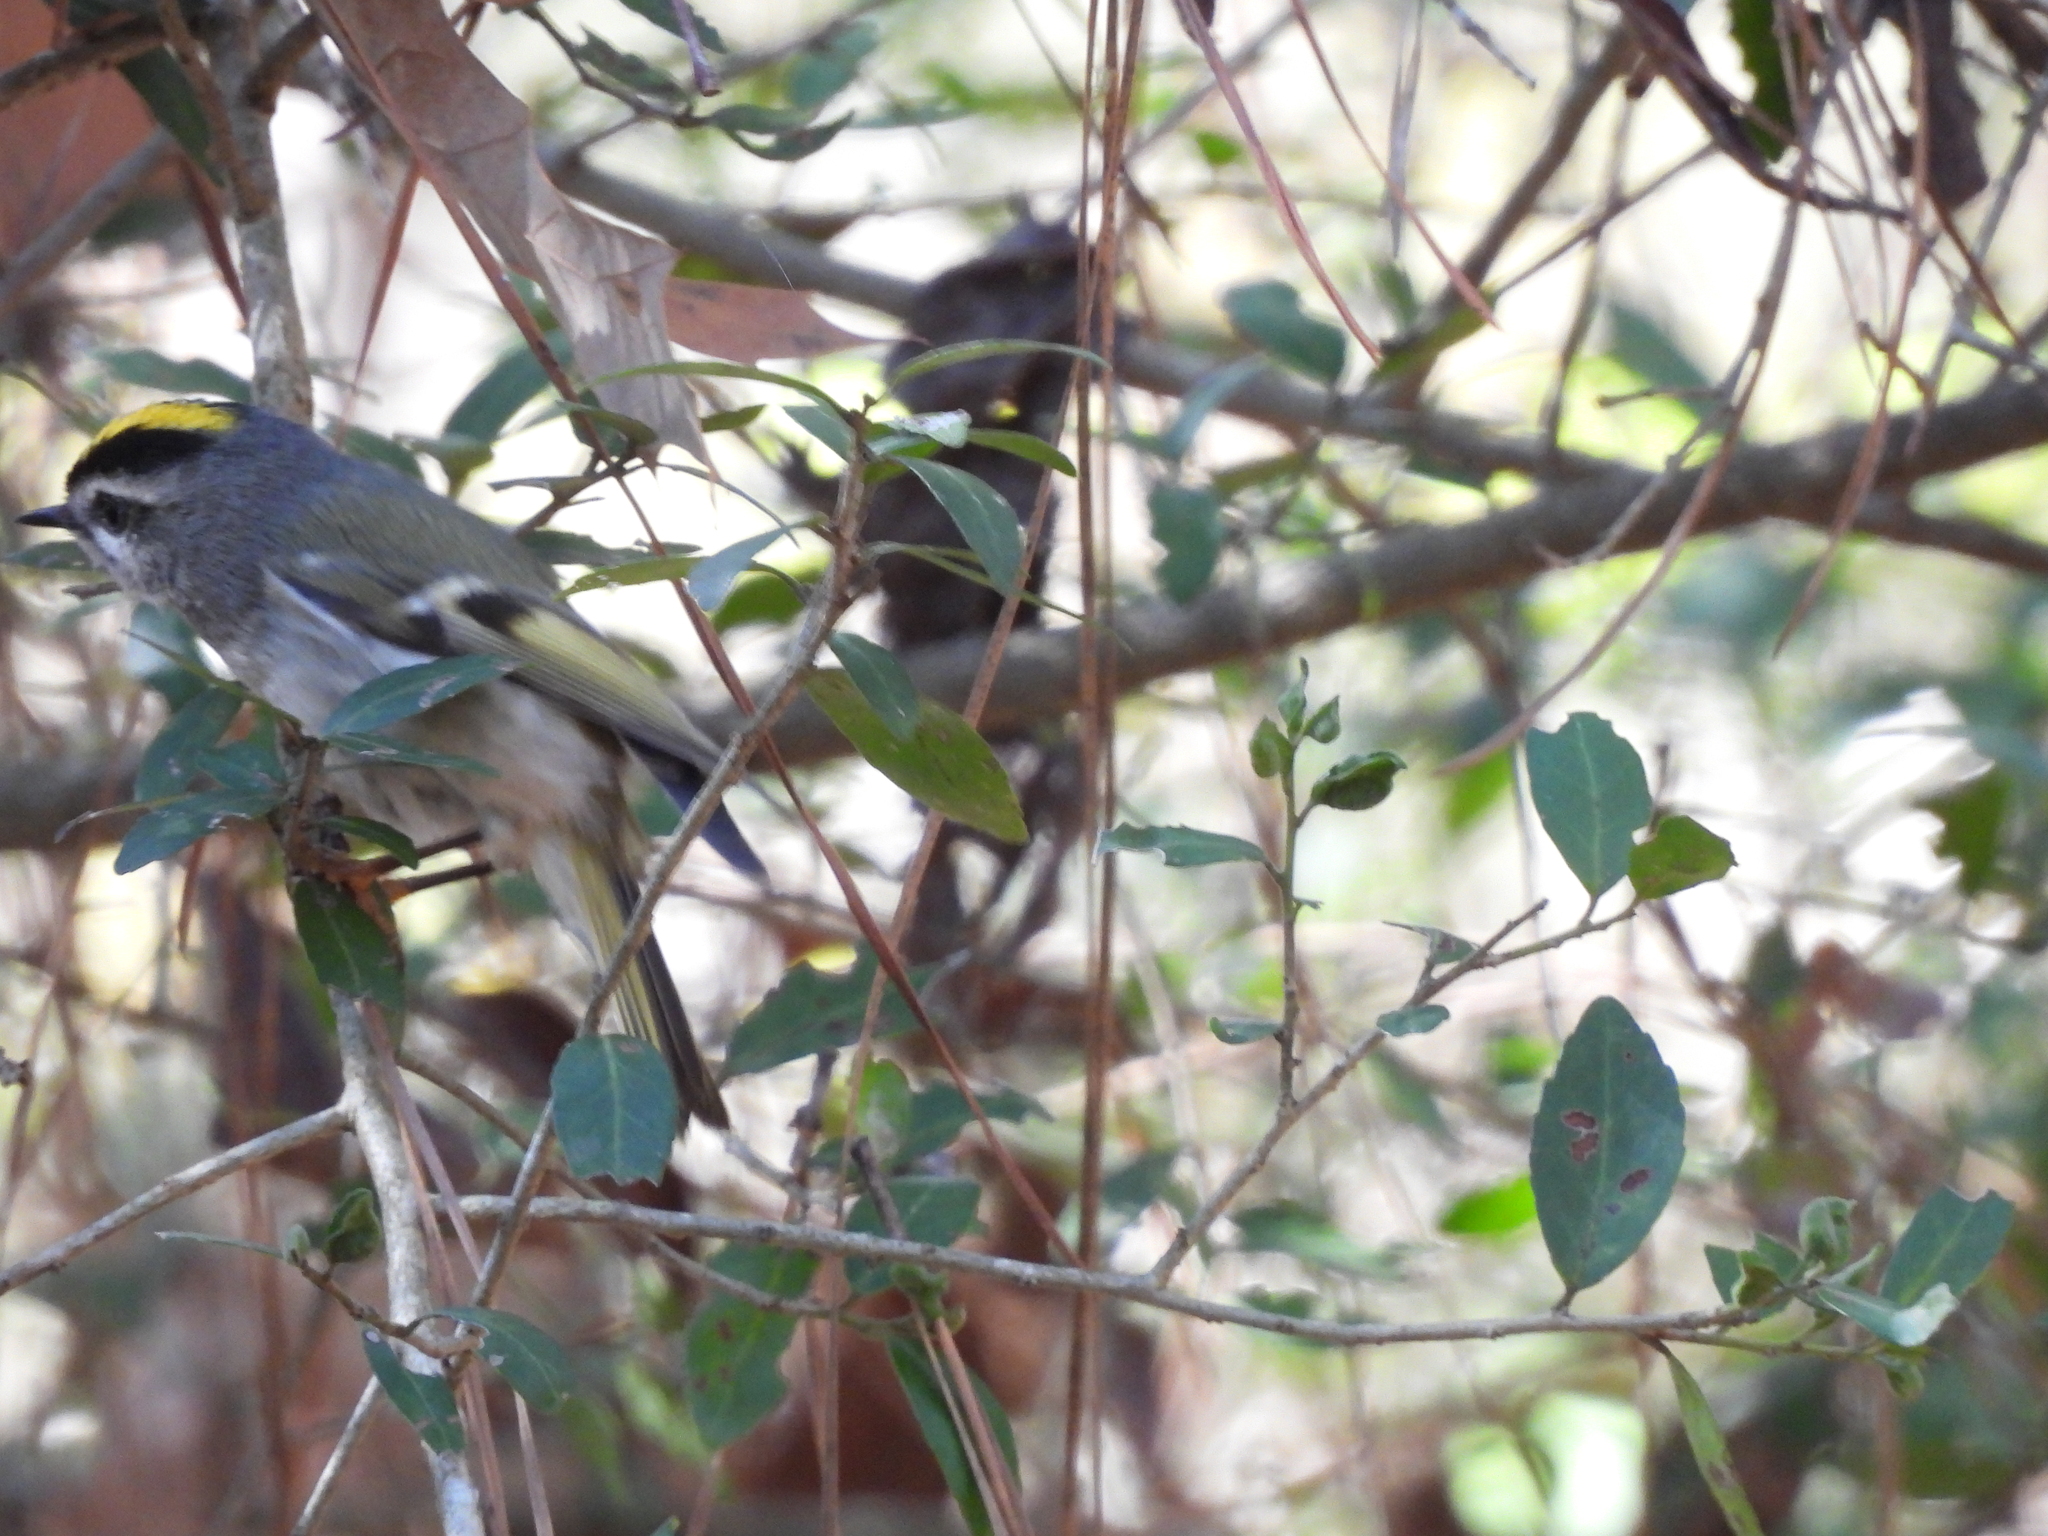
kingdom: Animalia
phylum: Chordata
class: Aves
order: Passeriformes
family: Regulidae
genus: Regulus
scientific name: Regulus satrapa
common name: Golden-crowned kinglet
